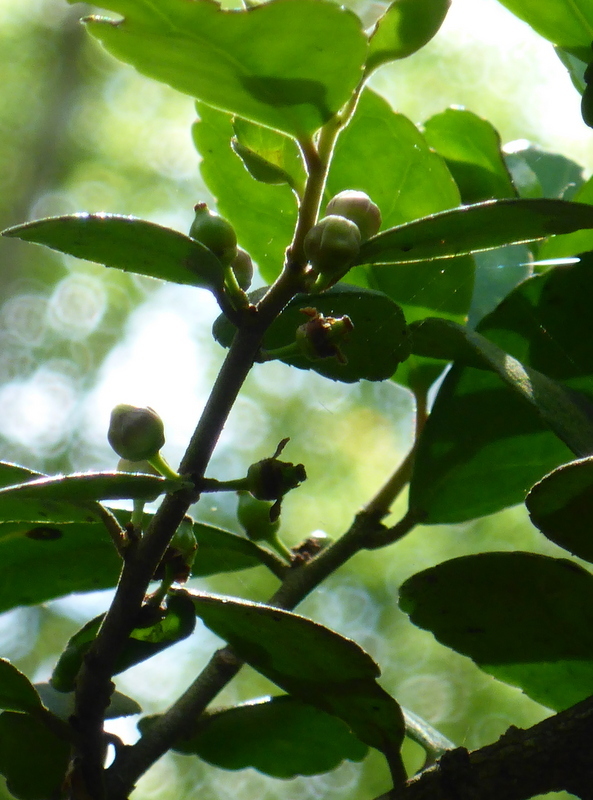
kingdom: Plantae
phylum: Tracheophyta
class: Magnoliopsida
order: Aquifoliales
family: Aquifoliaceae
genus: Ilex
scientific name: Ilex vomitoria
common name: Yaupon holly
